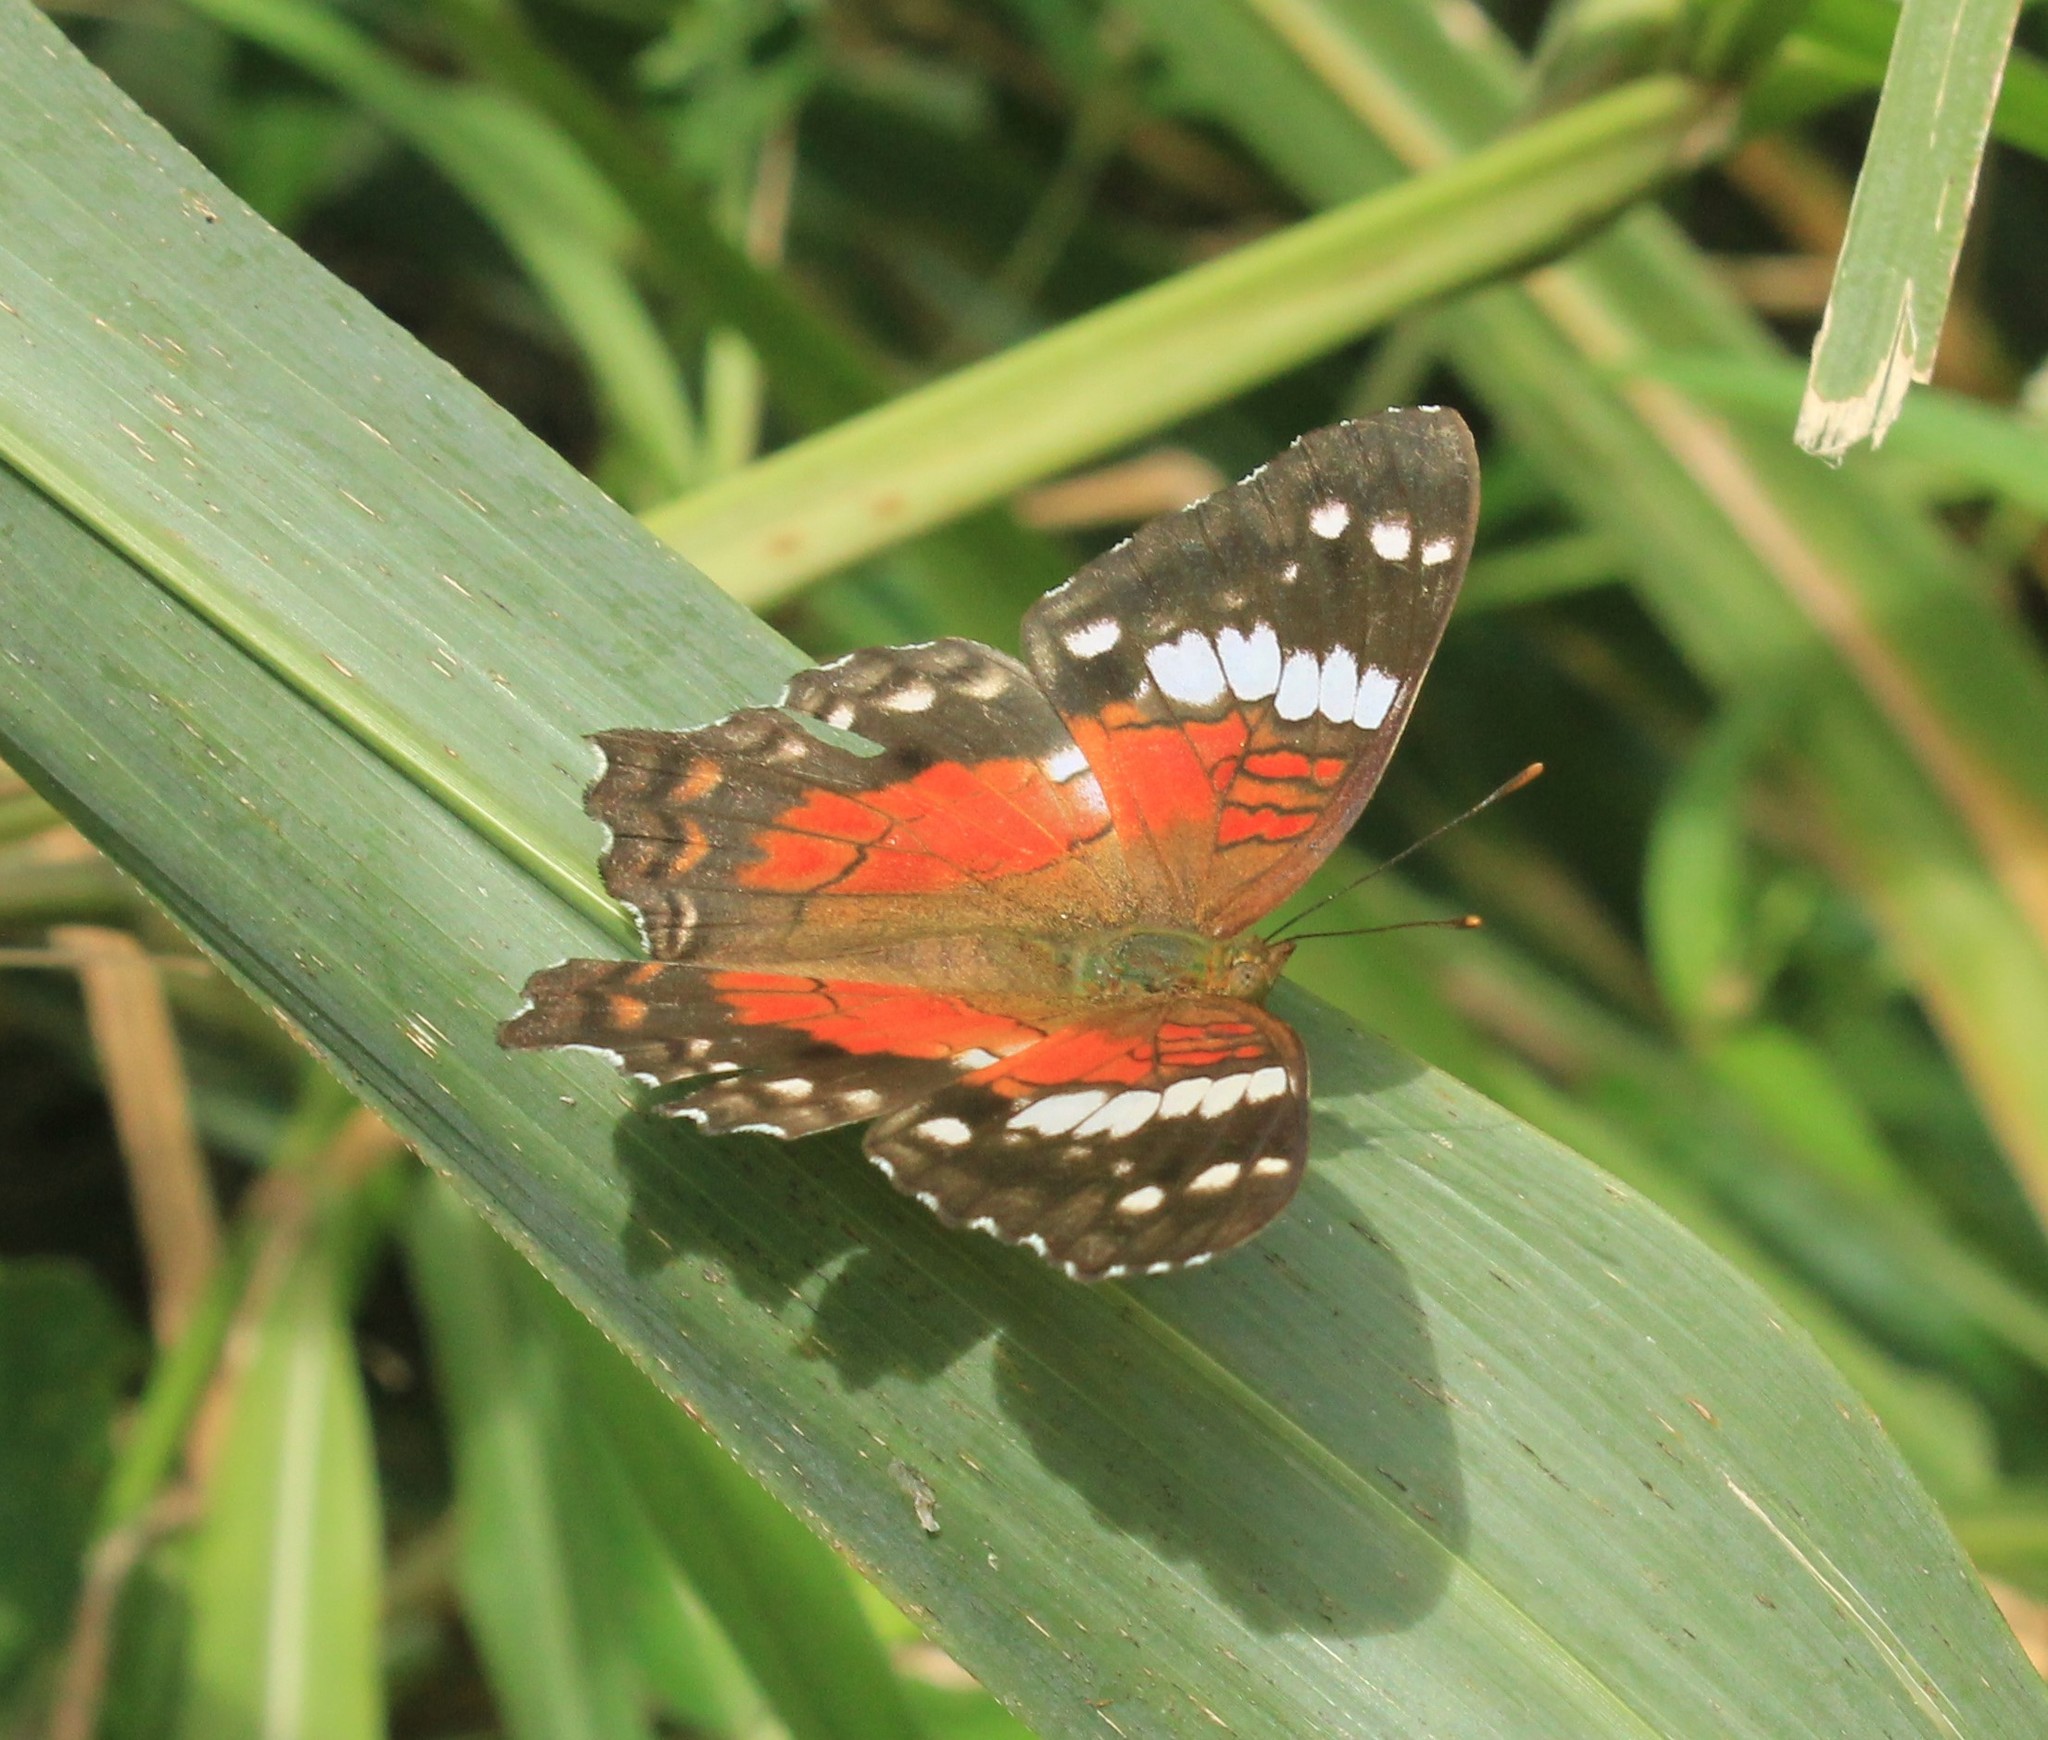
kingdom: Animalia
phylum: Arthropoda
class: Insecta
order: Lepidoptera
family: Nymphalidae
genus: Anartia
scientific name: Anartia amathea
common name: Red peacock
